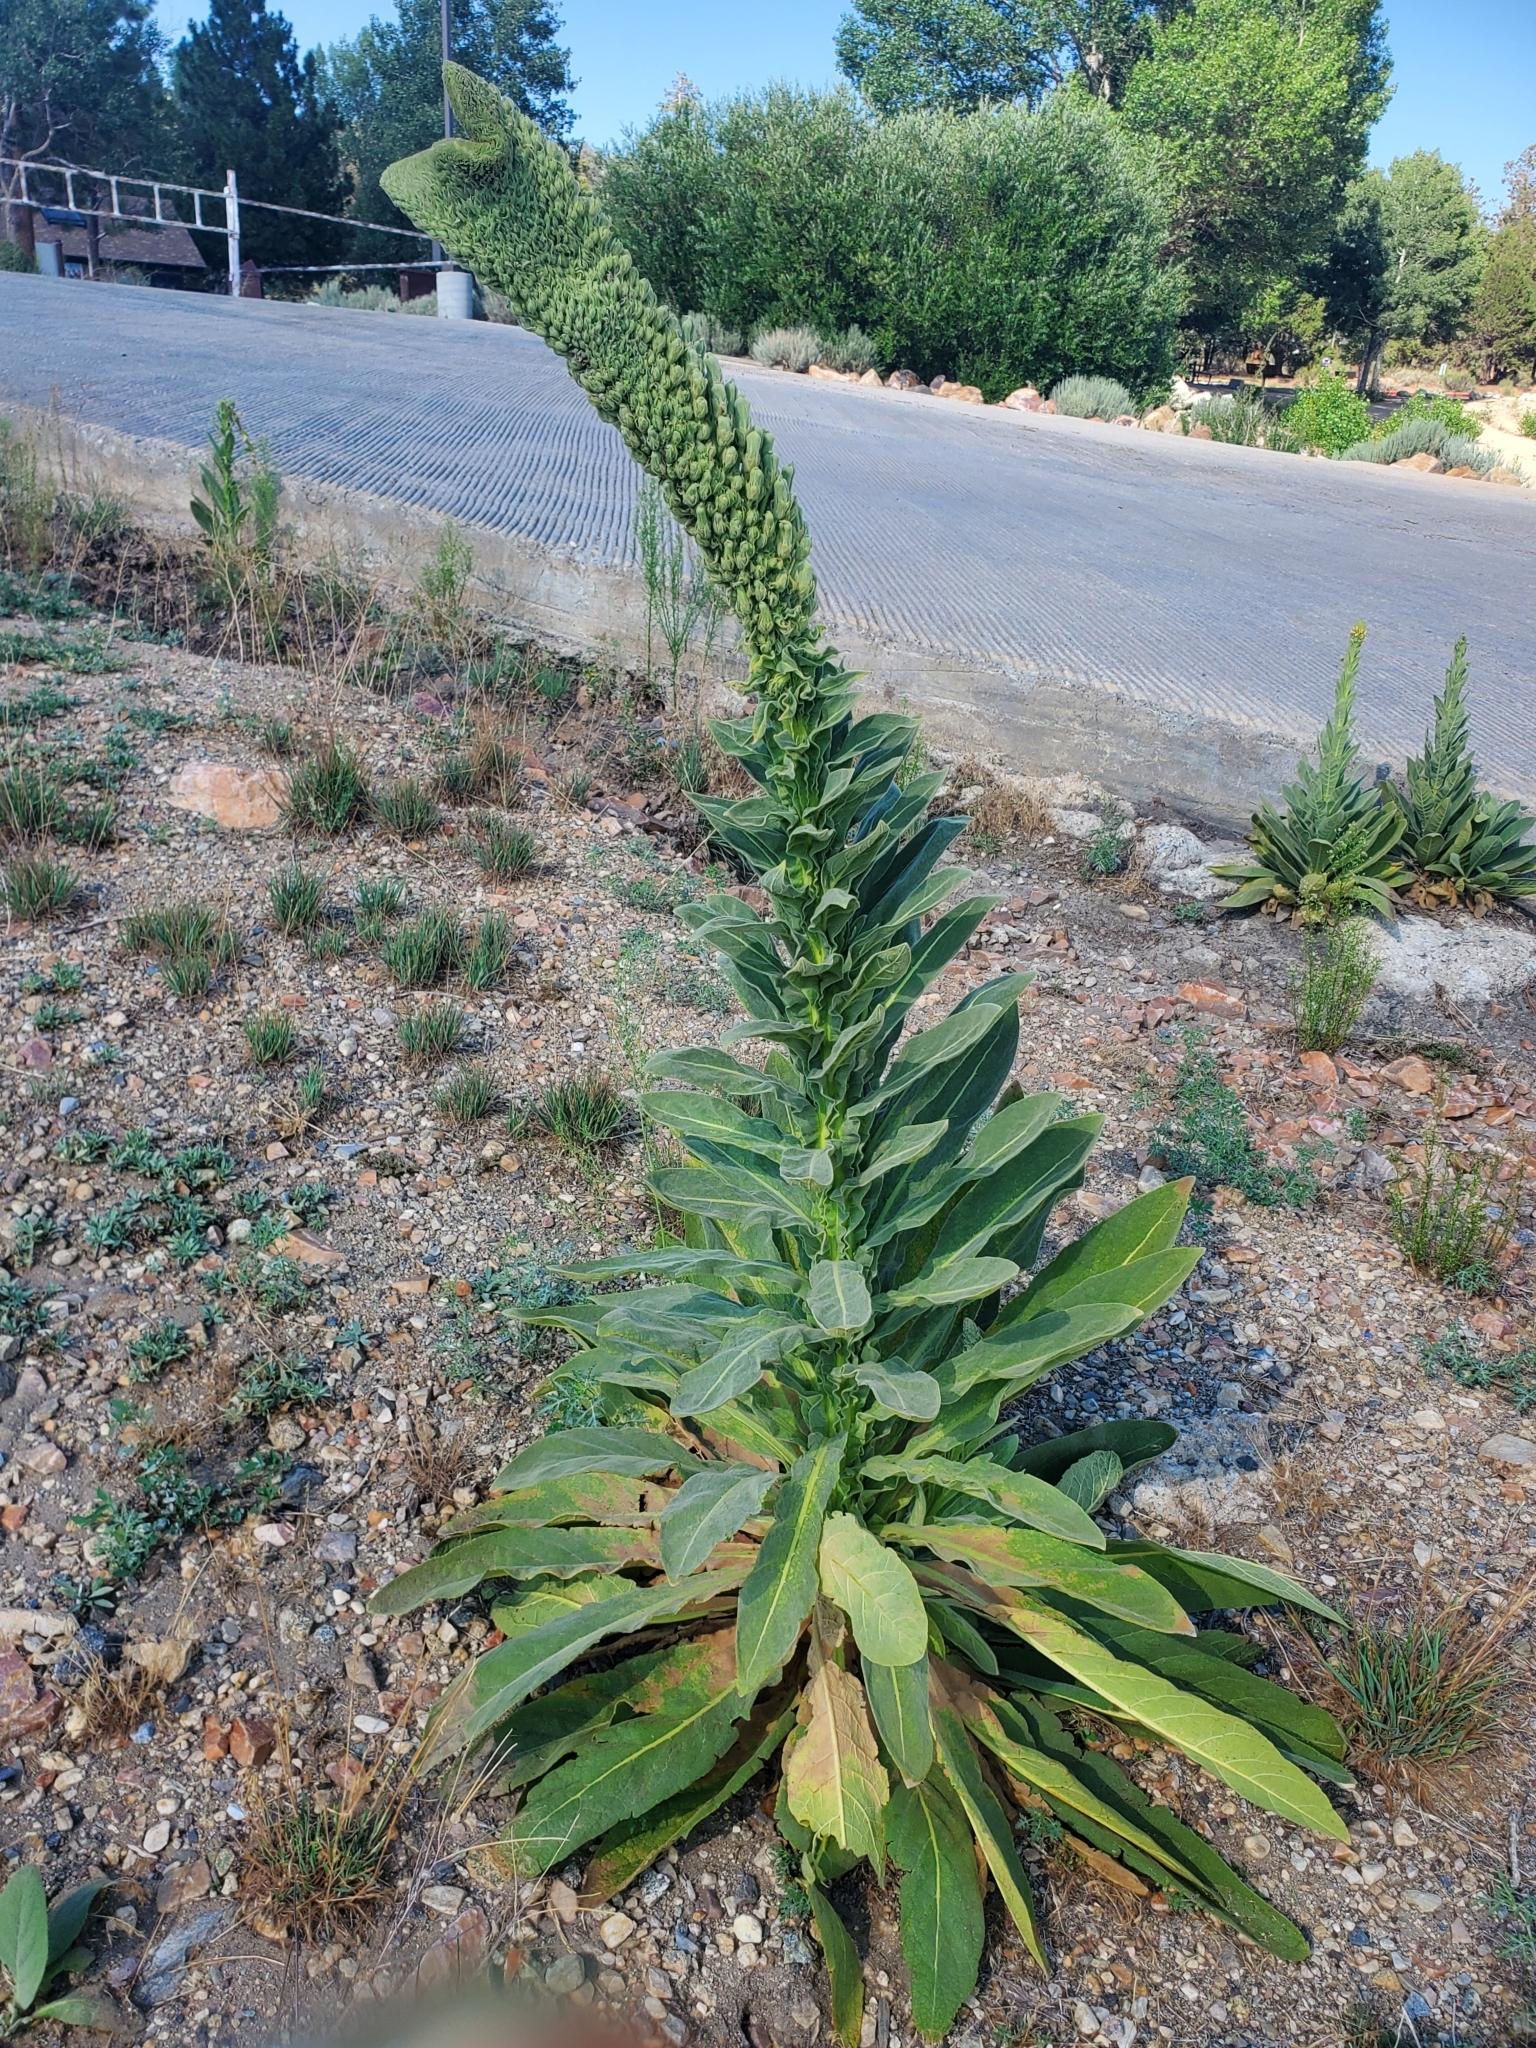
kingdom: Plantae
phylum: Tracheophyta
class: Magnoliopsida
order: Lamiales
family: Scrophulariaceae
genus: Verbascum
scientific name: Verbascum thapsus
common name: Common mullein
